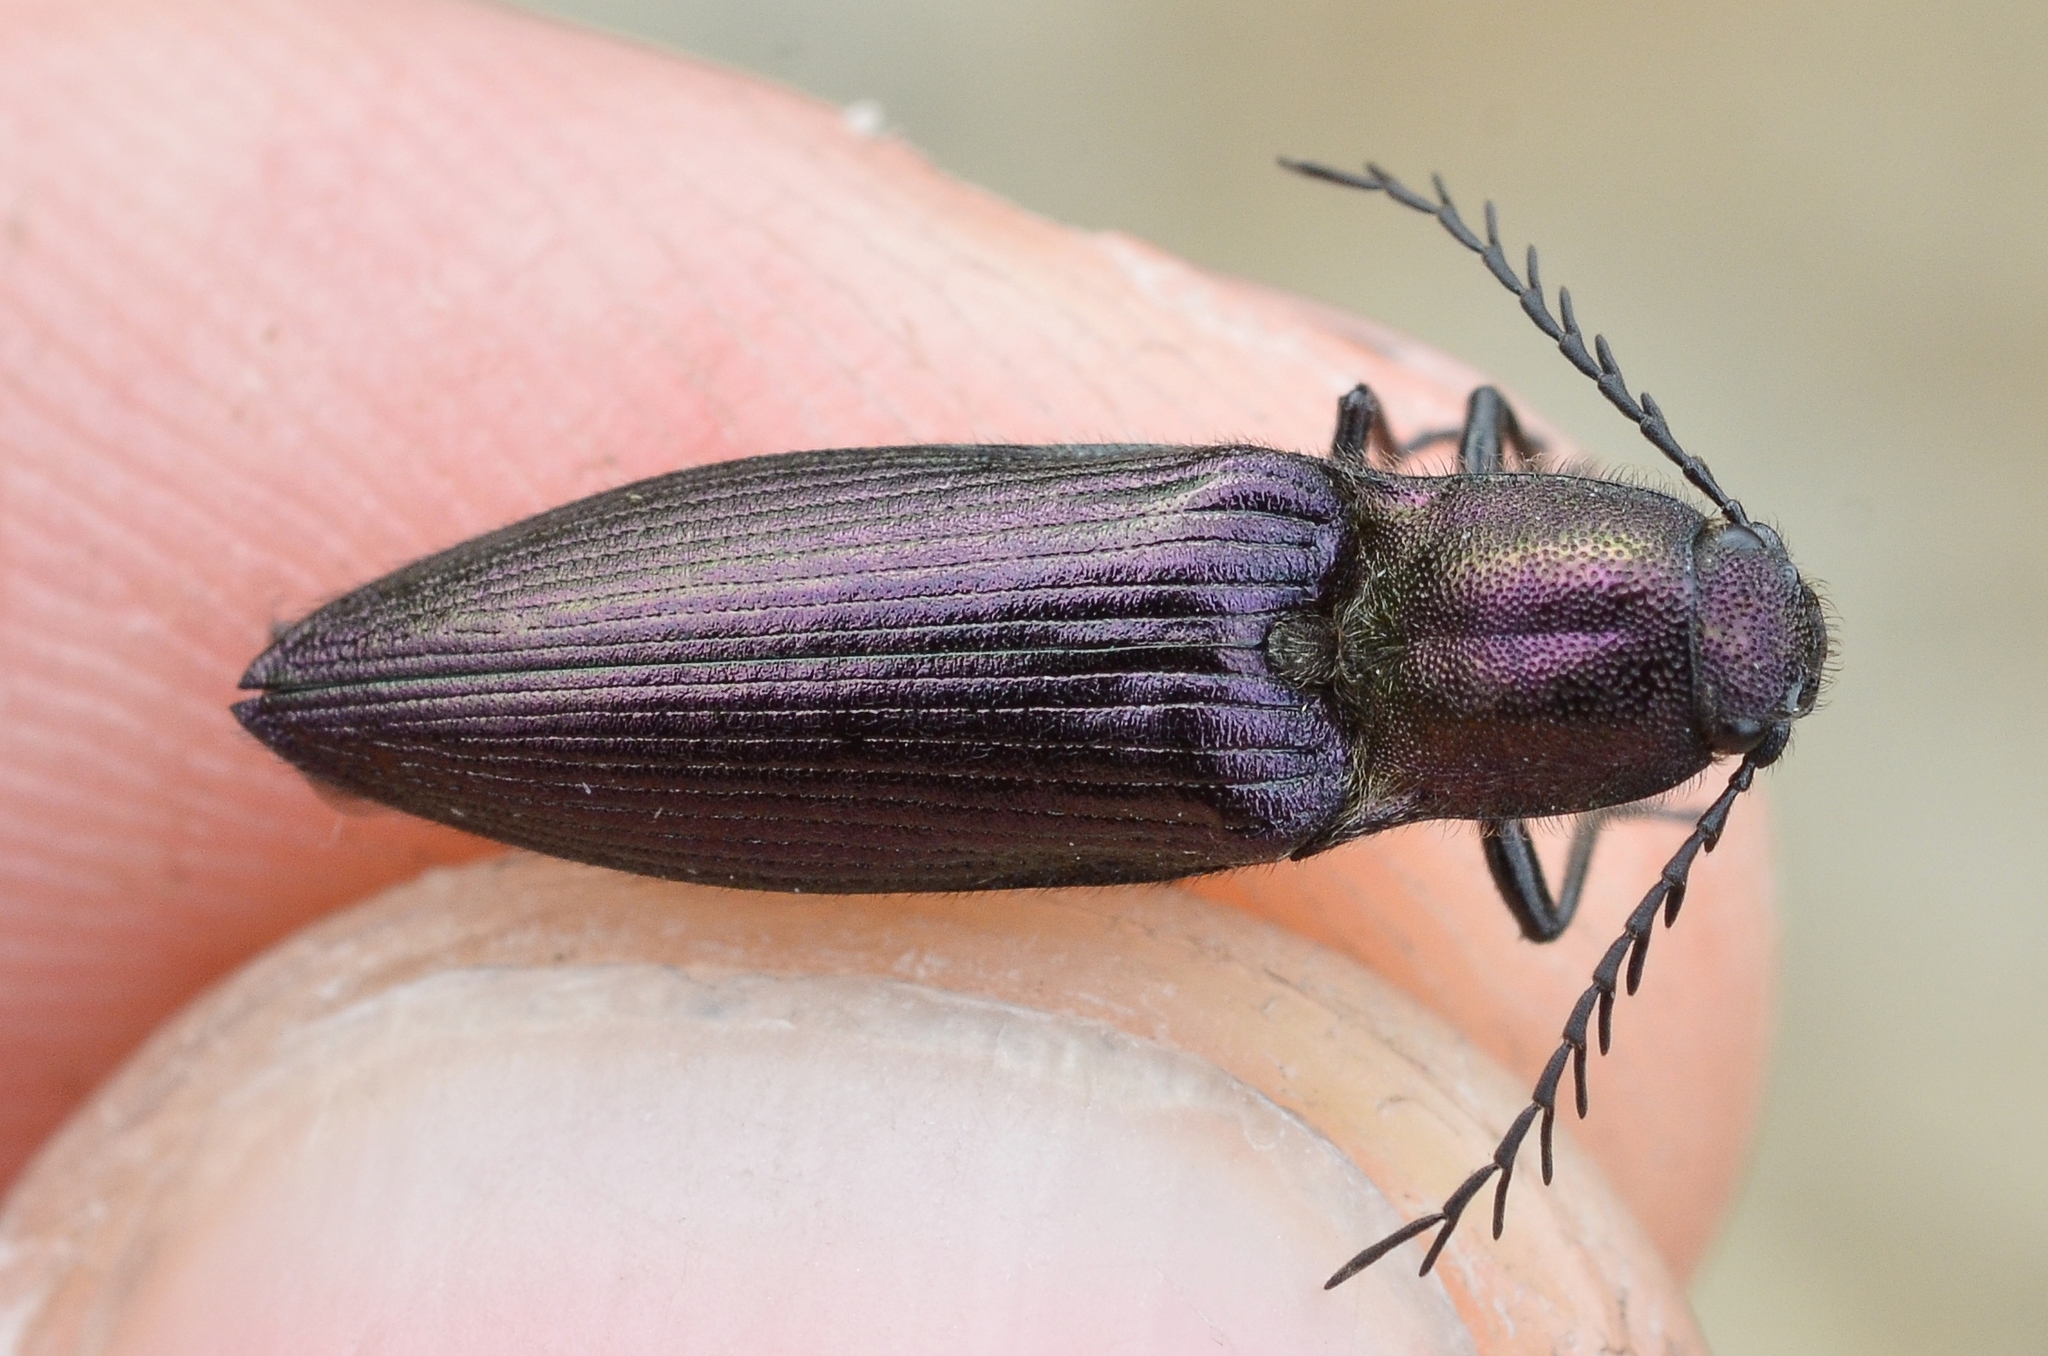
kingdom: Animalia
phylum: Arthropoda
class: Insecta
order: Coleoptera
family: Elateridae
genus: Ctenicera
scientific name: Ctenicera cuprea
